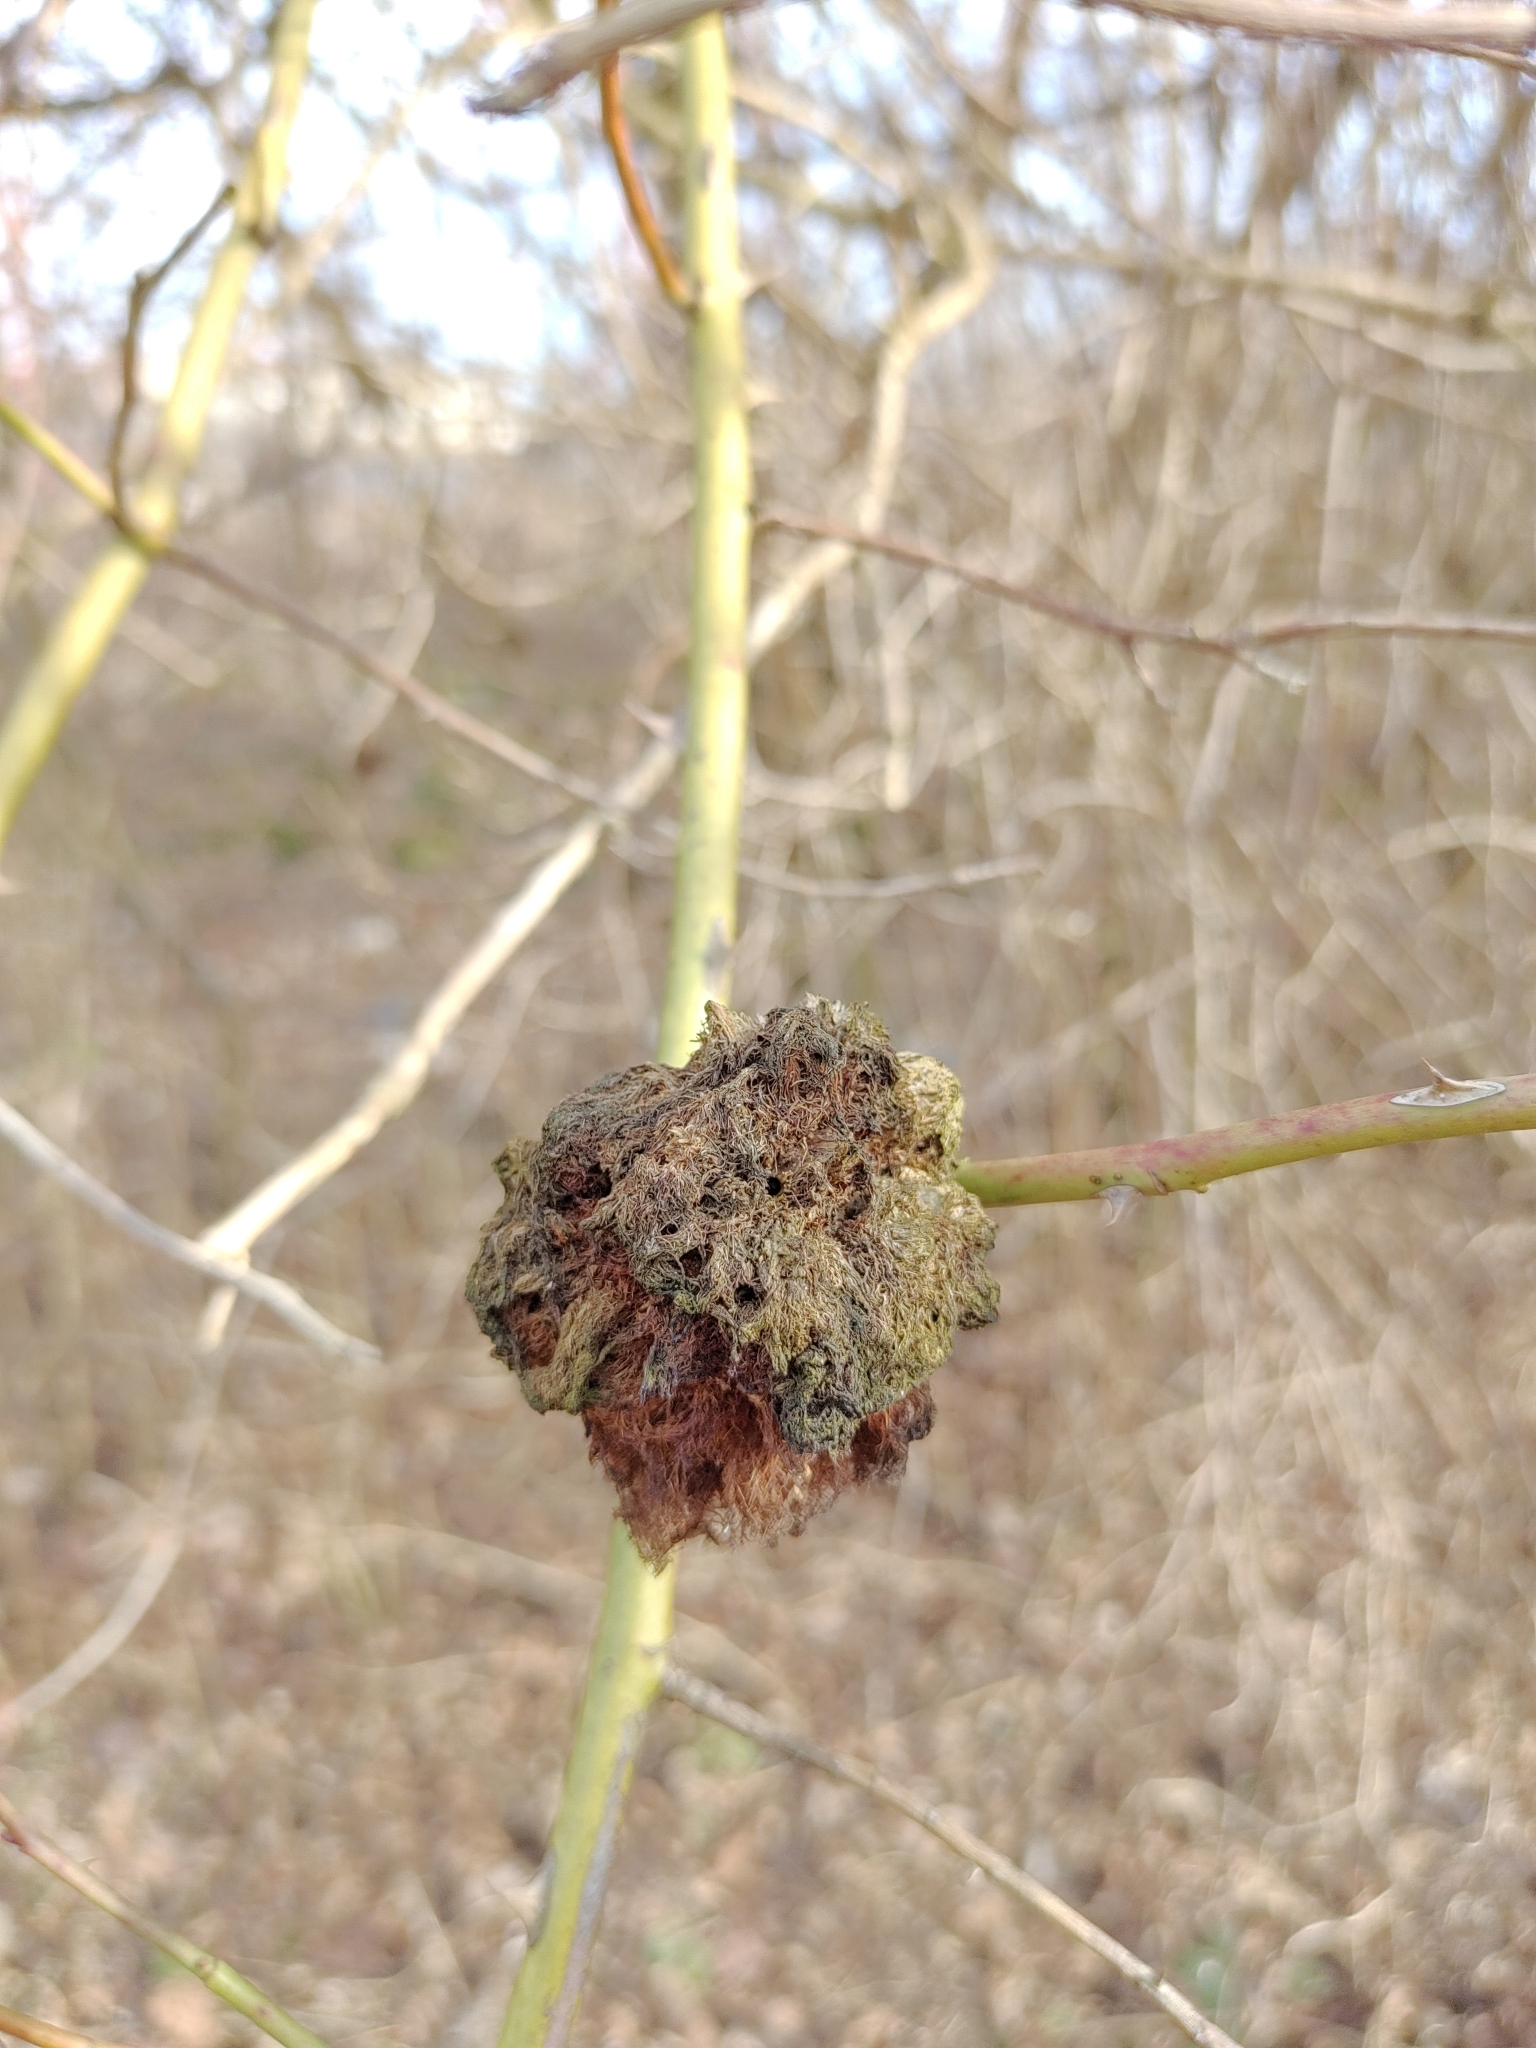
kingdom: Animalia
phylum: Arthropoda
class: Insecta
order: Hymenoptera
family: Cynipidae
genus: Diplolepis
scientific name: Diplolepis rosae
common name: Bedeguar gall
